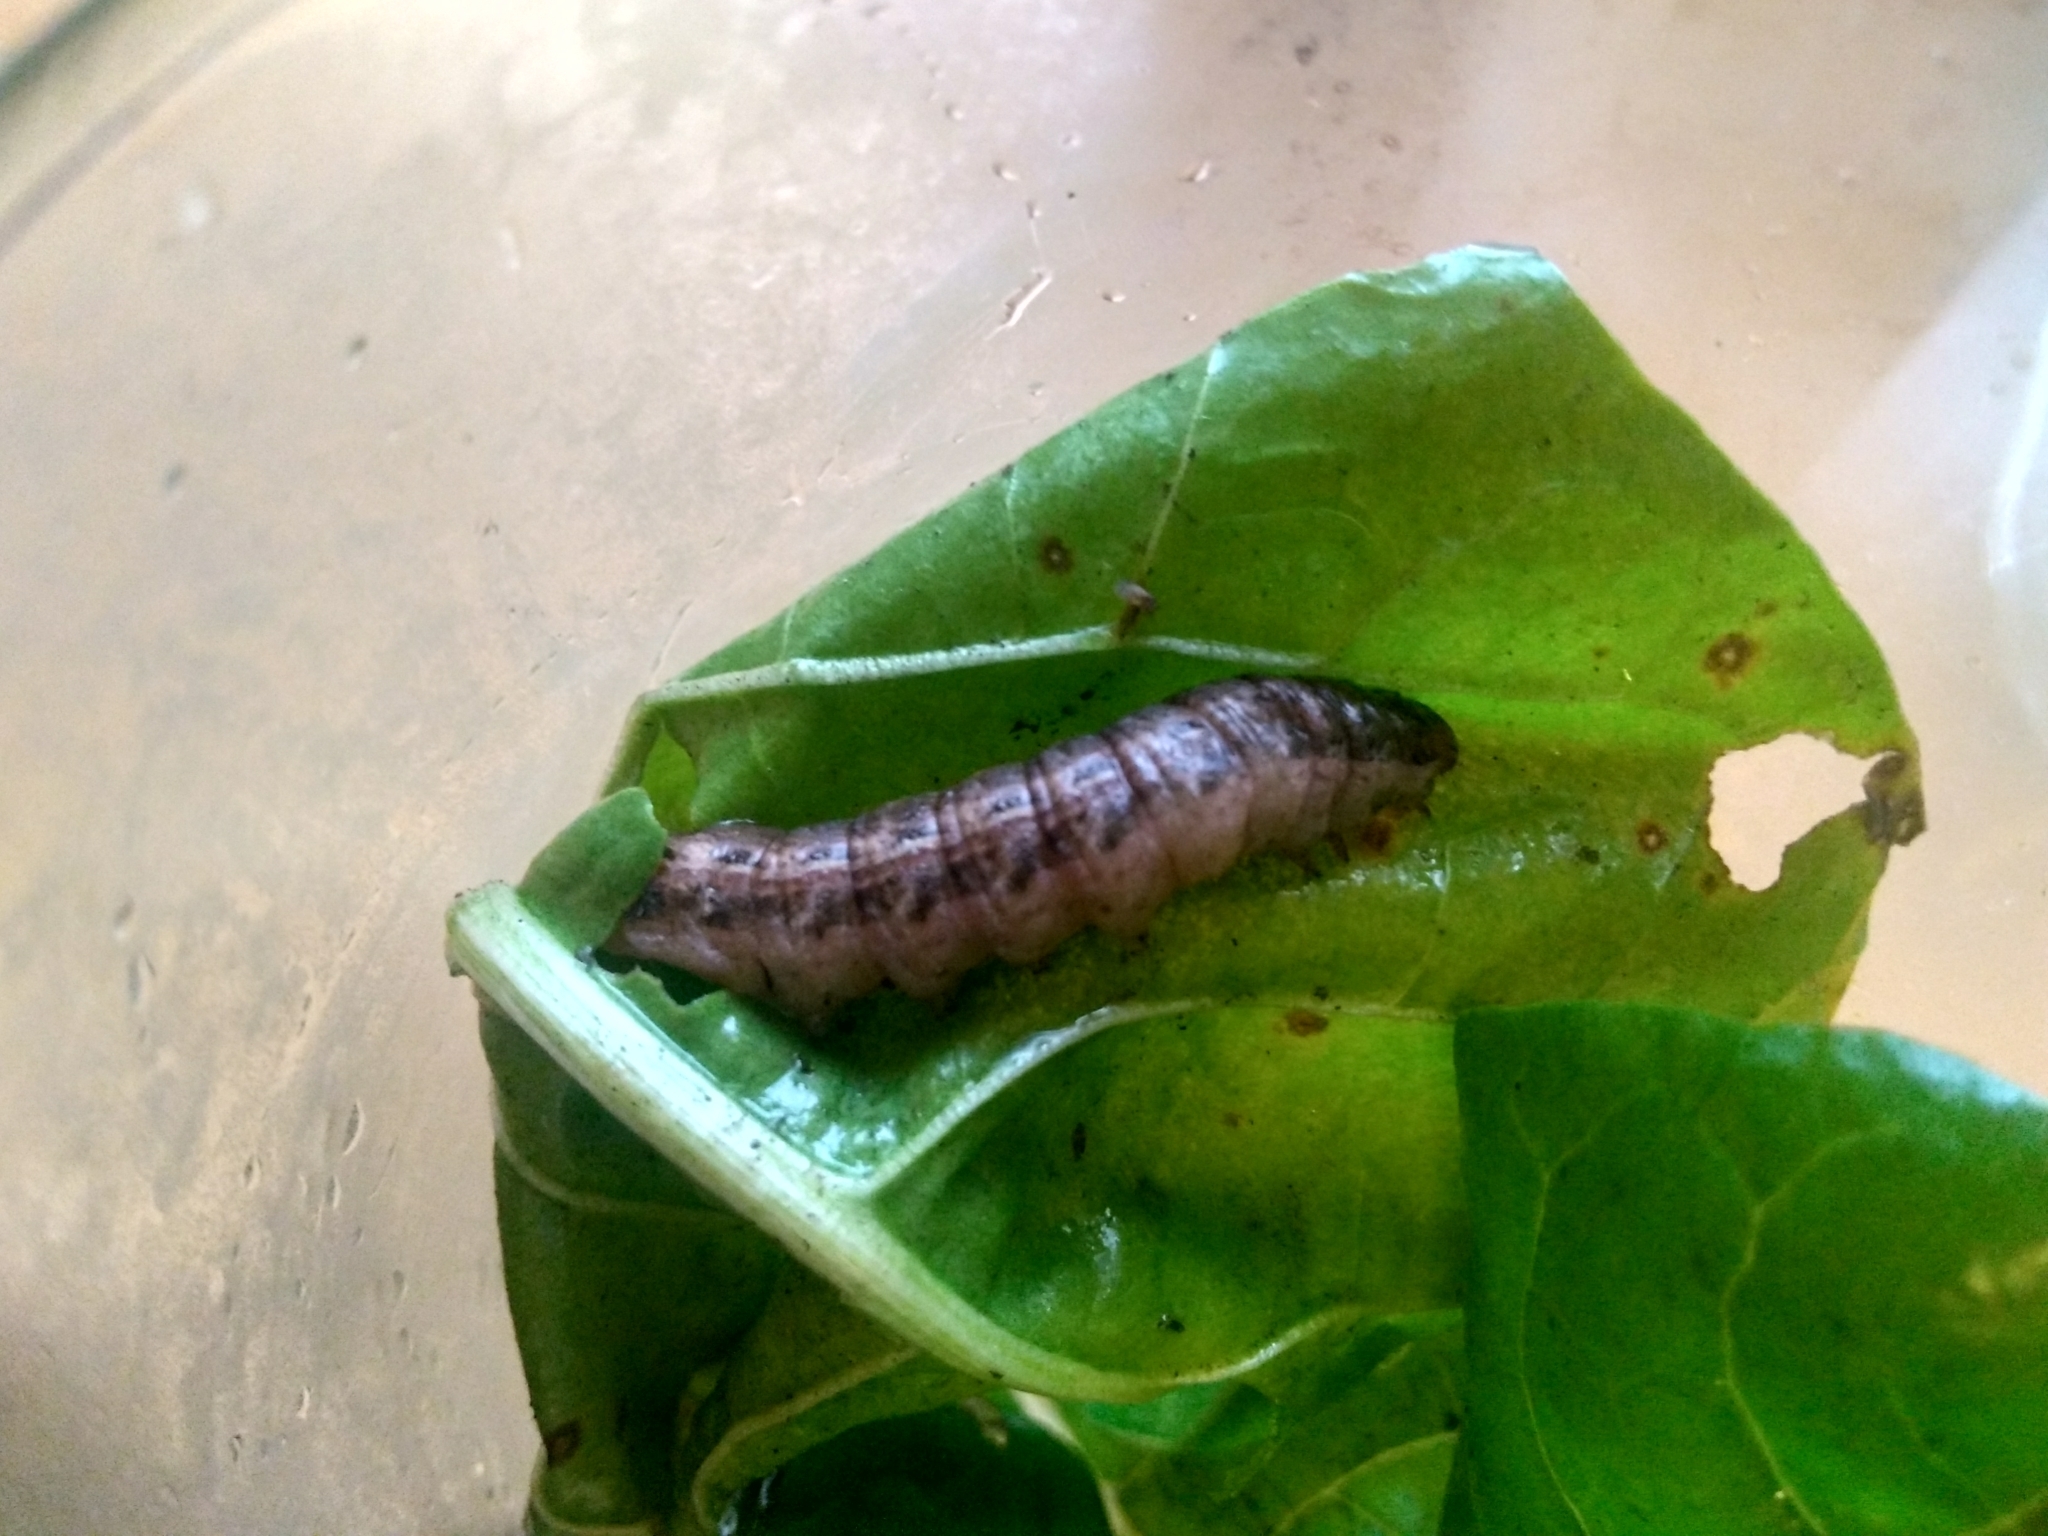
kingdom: Animalia
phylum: Arthropoda
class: Insecta
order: Lepidoptera
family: Noctuidae
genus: Noctua
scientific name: Noctua pronuba
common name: Large yellow underwing
